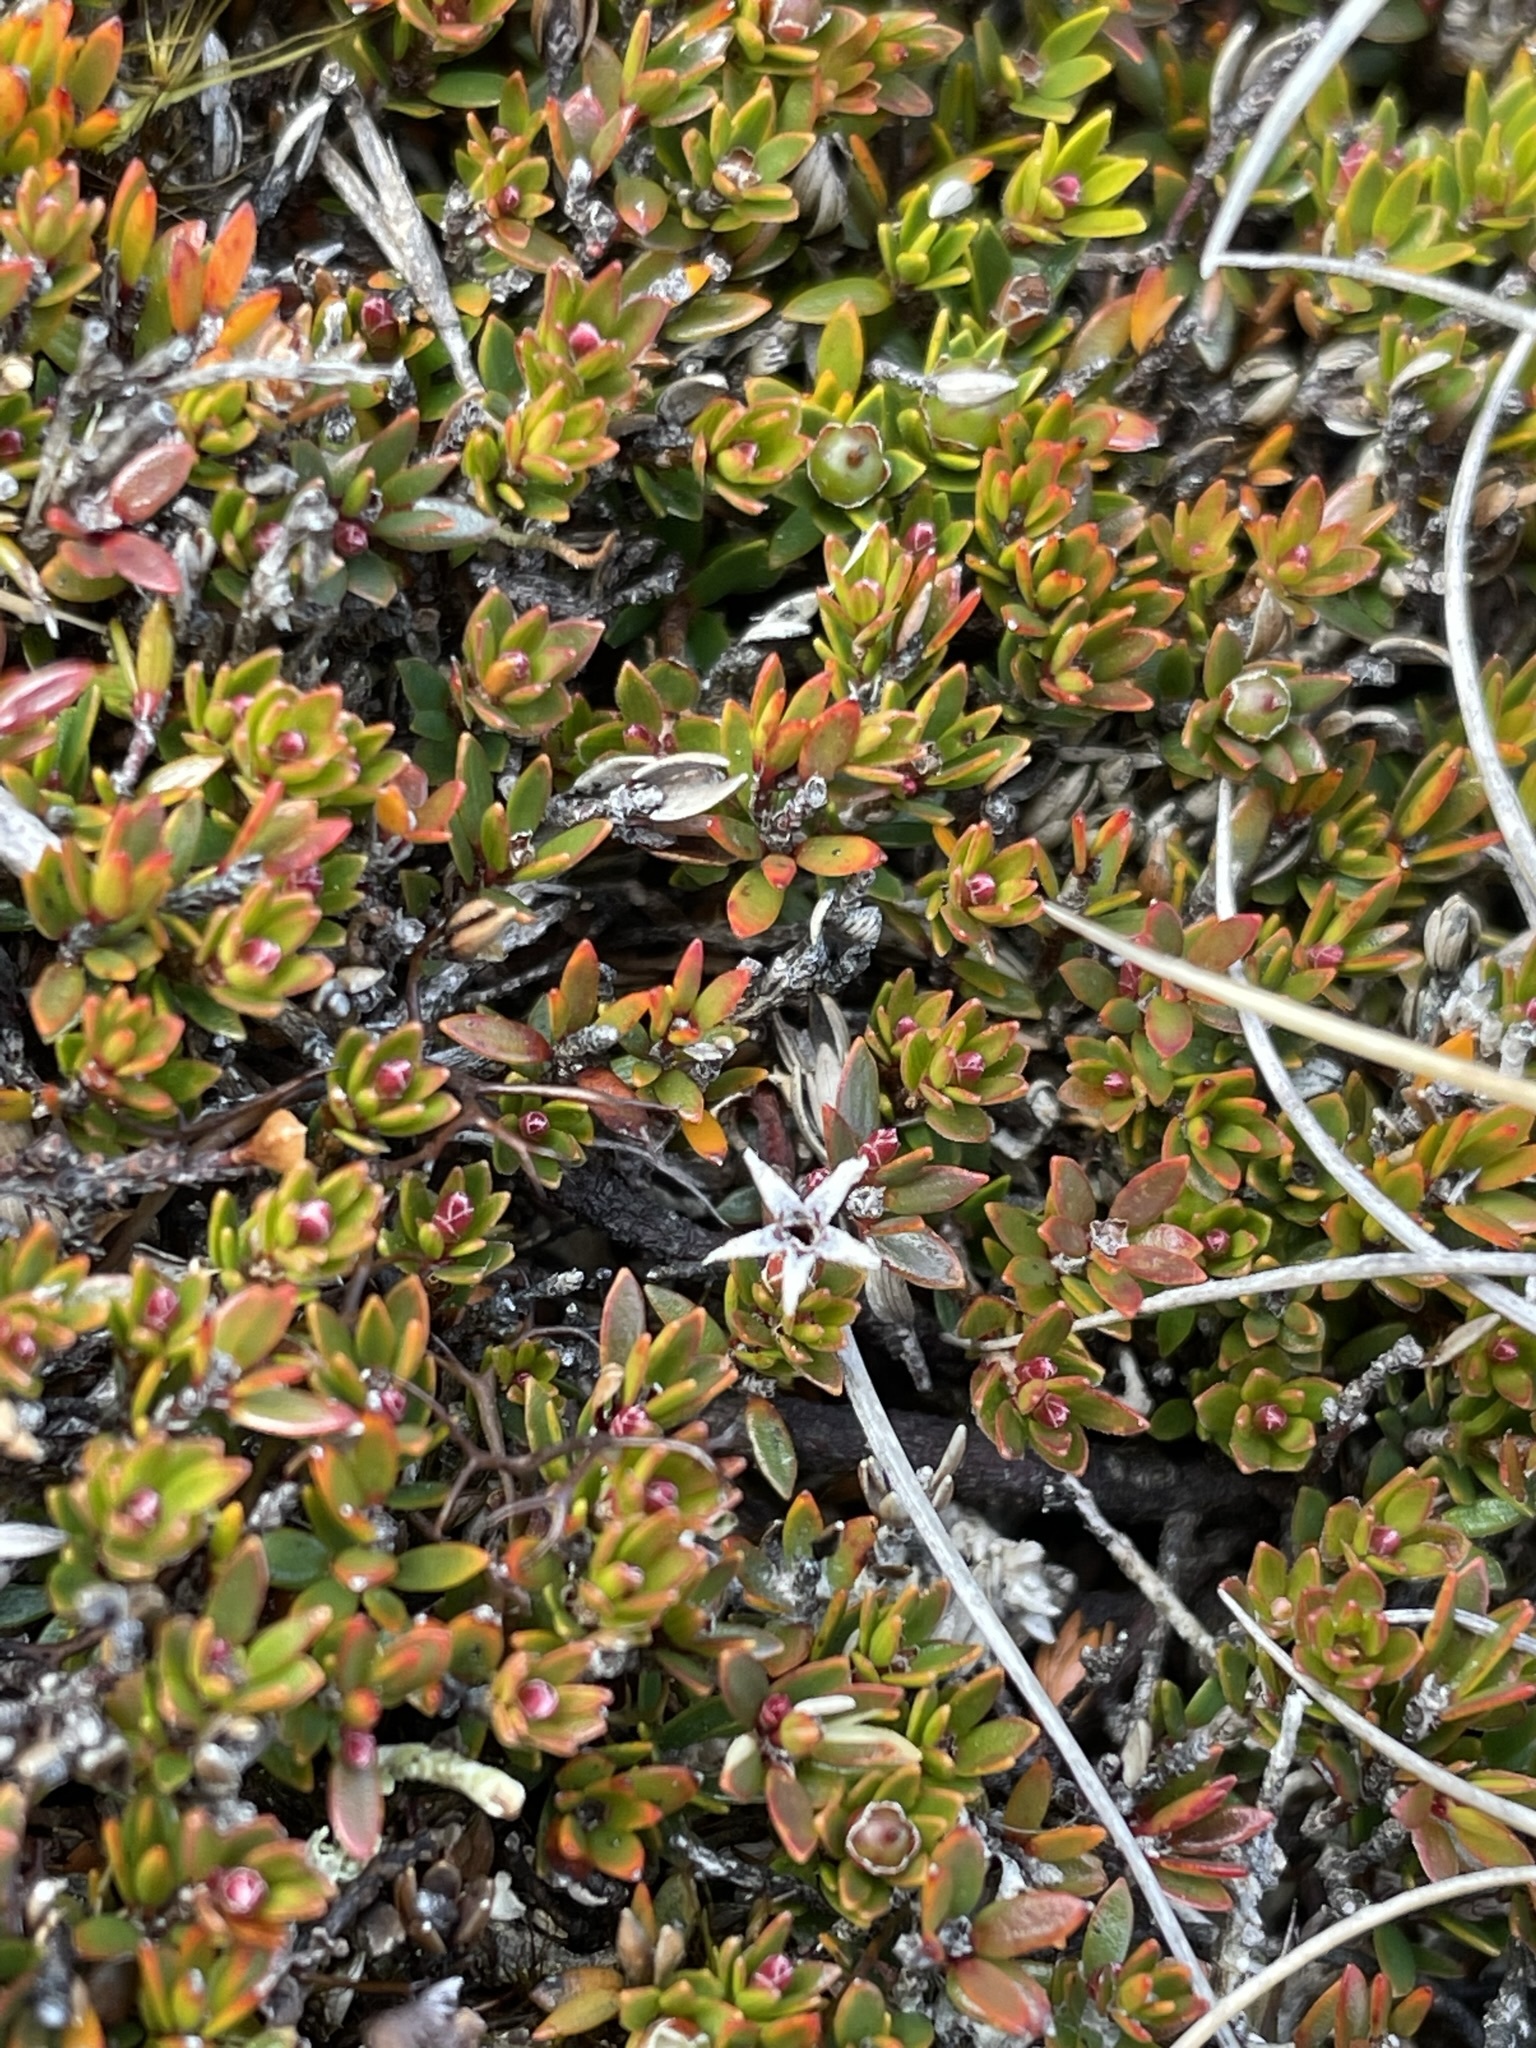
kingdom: Plantae
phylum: Tracheophyta
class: Magnoliopsida
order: Ericales
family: Ericaceae
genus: Pentachondra
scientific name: Pentachondra pumila
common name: Carpet-heath
